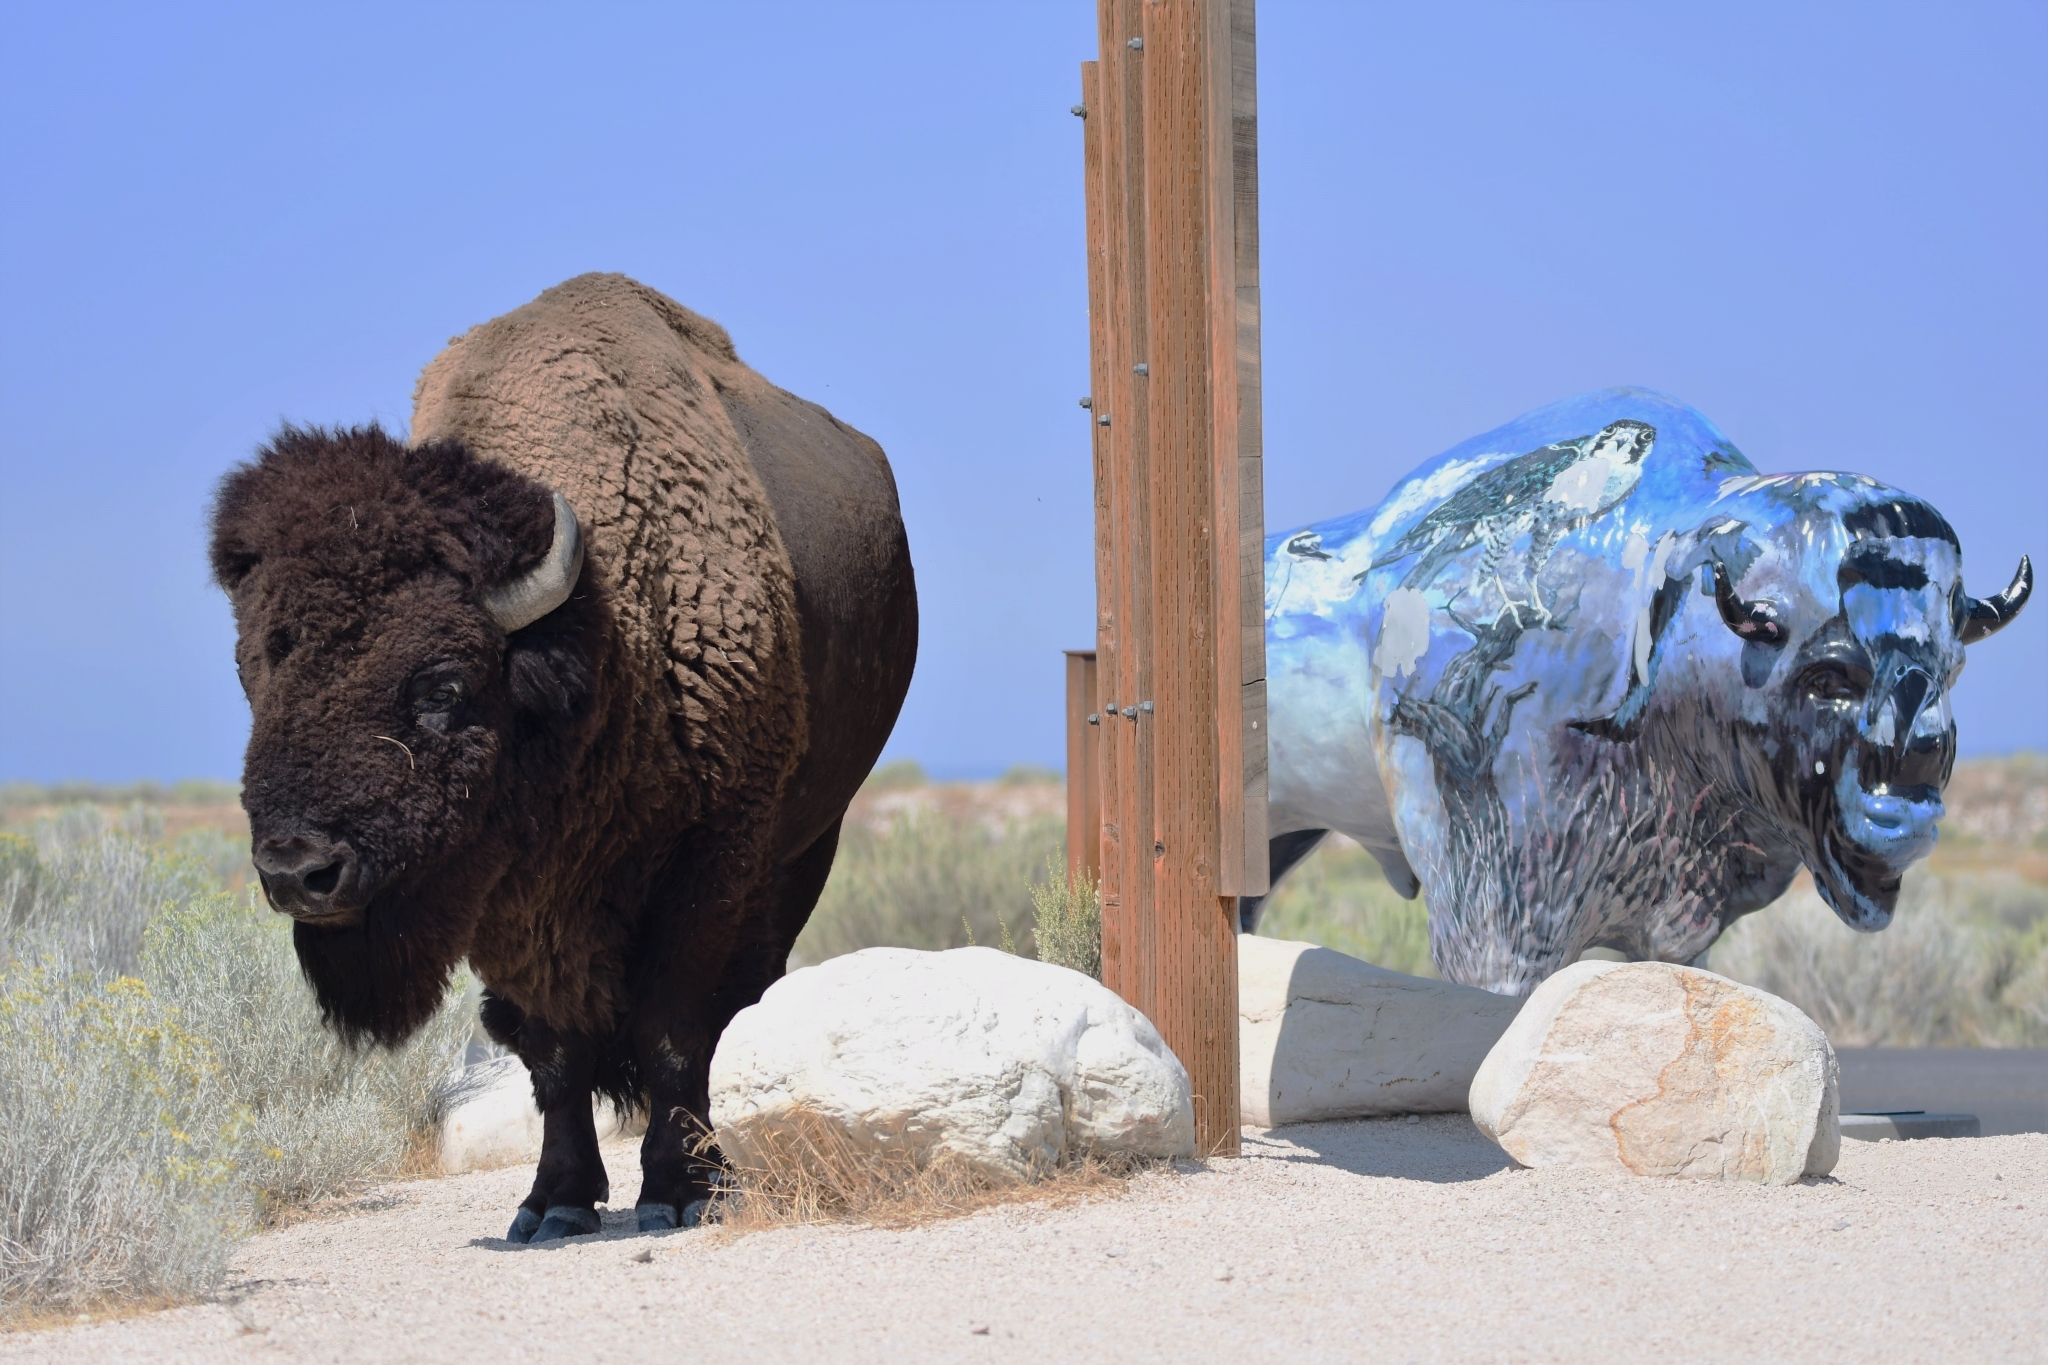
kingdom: Animalia
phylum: Chordata
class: Mammalia
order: Artiodactyla
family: Bovidae
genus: Bison
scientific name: Bison bison
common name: American bison
